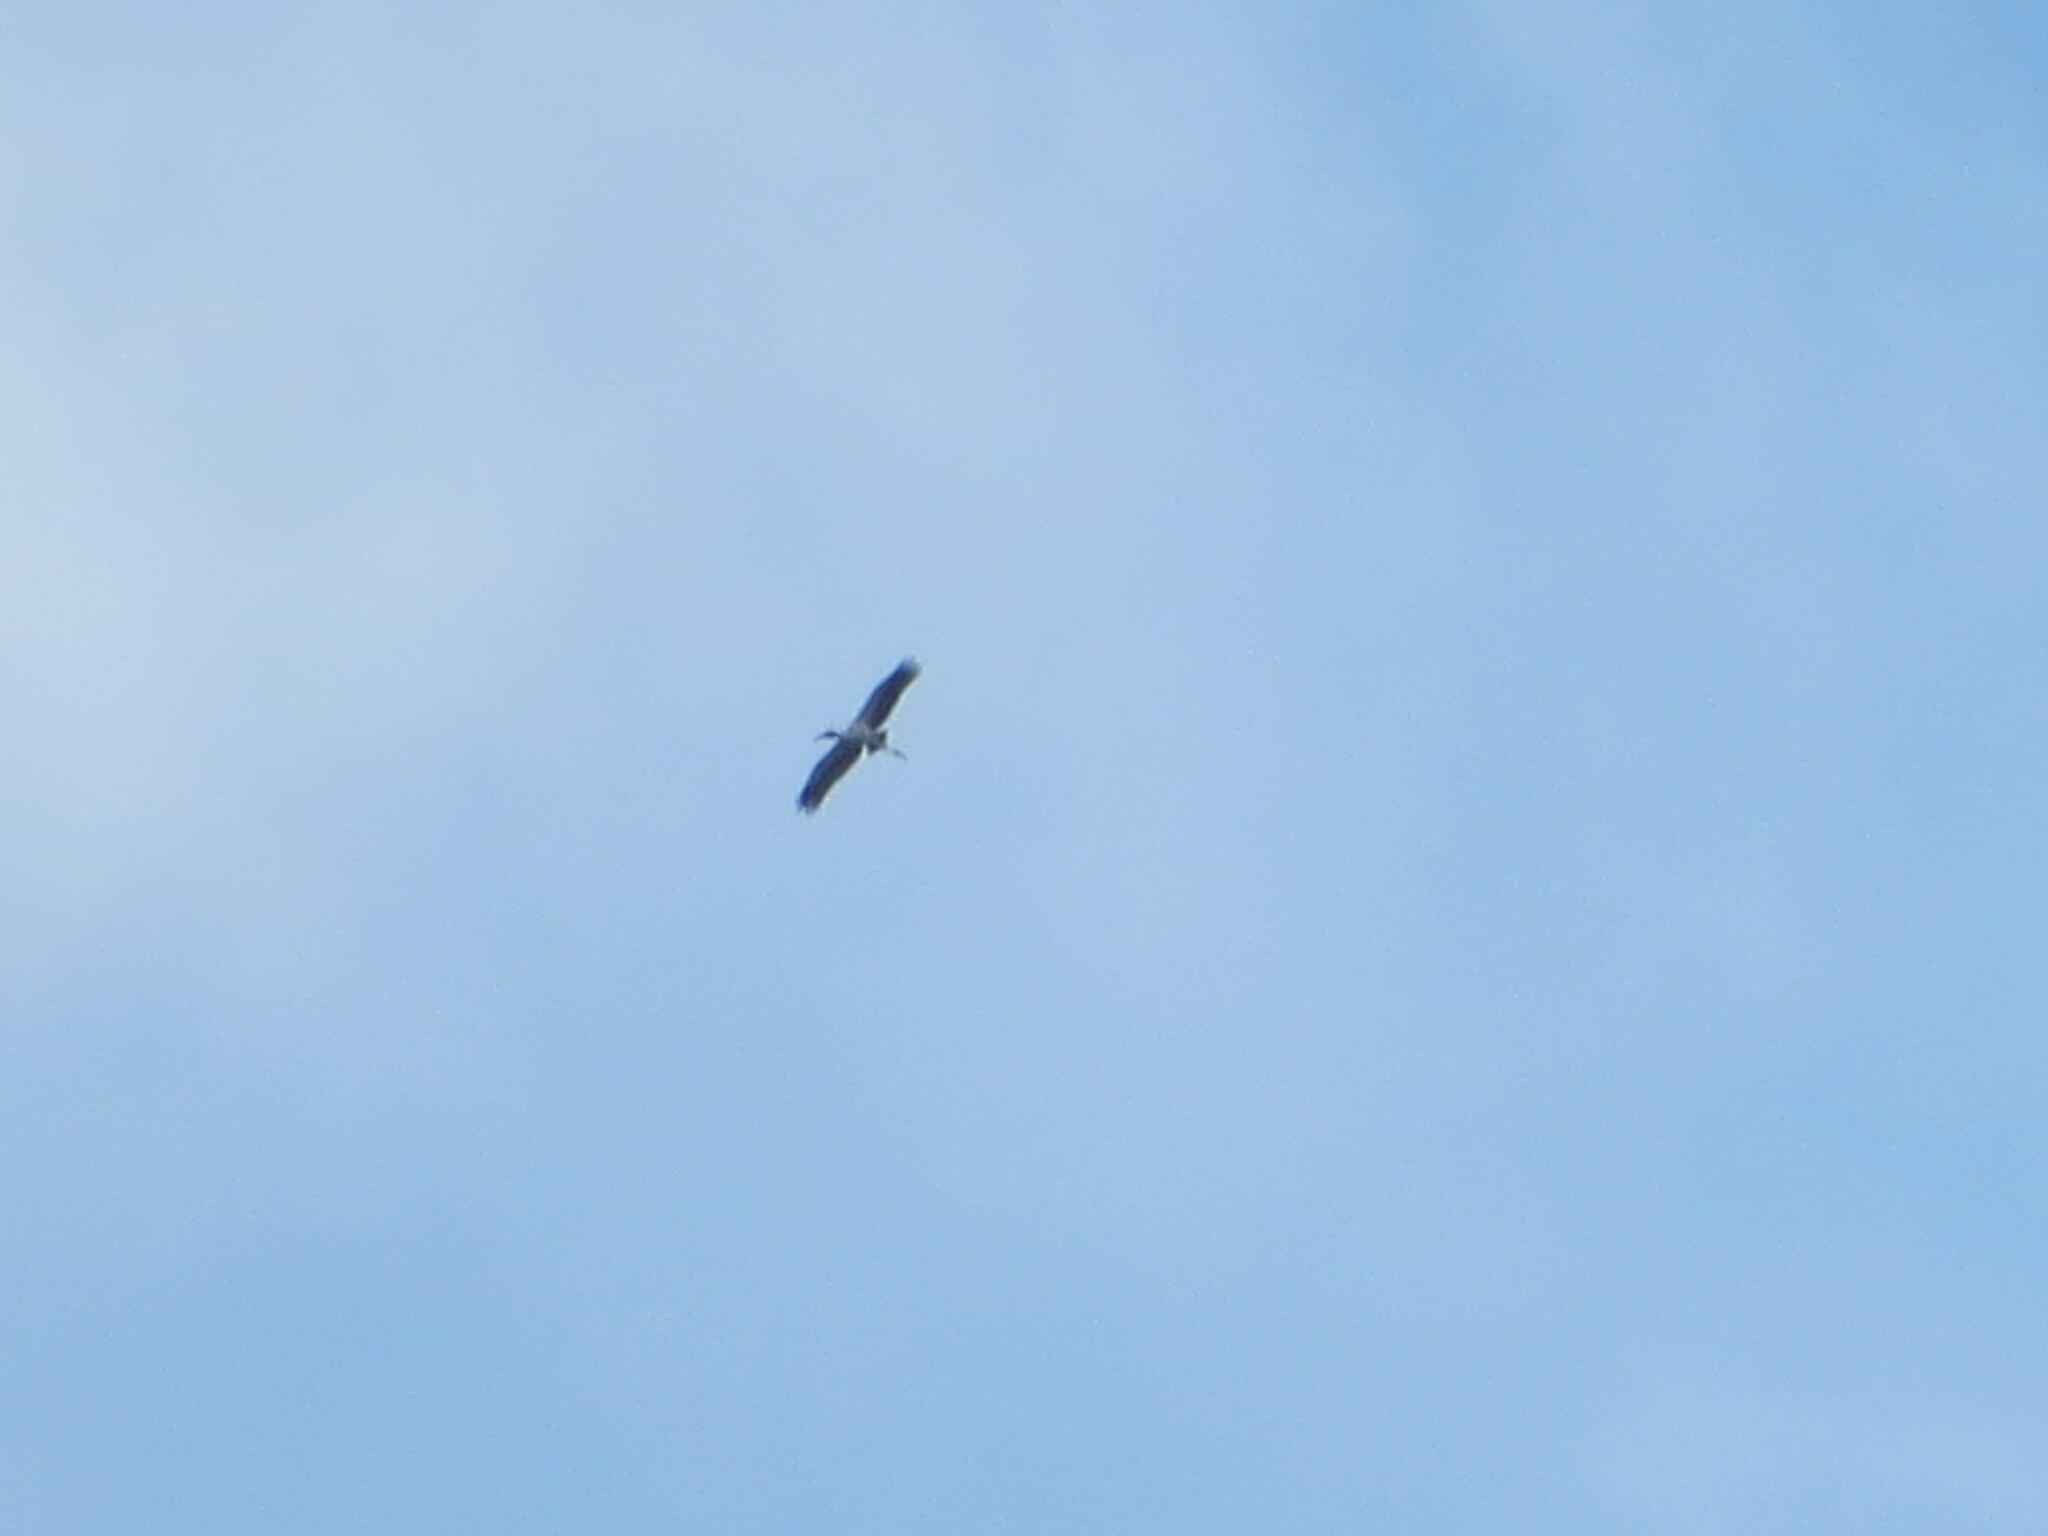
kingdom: Animalia
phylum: Chordata
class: Aves
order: Ciconiiformes
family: Ciconiidae
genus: Mycteria
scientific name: Mycteria americana
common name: Wood stork
